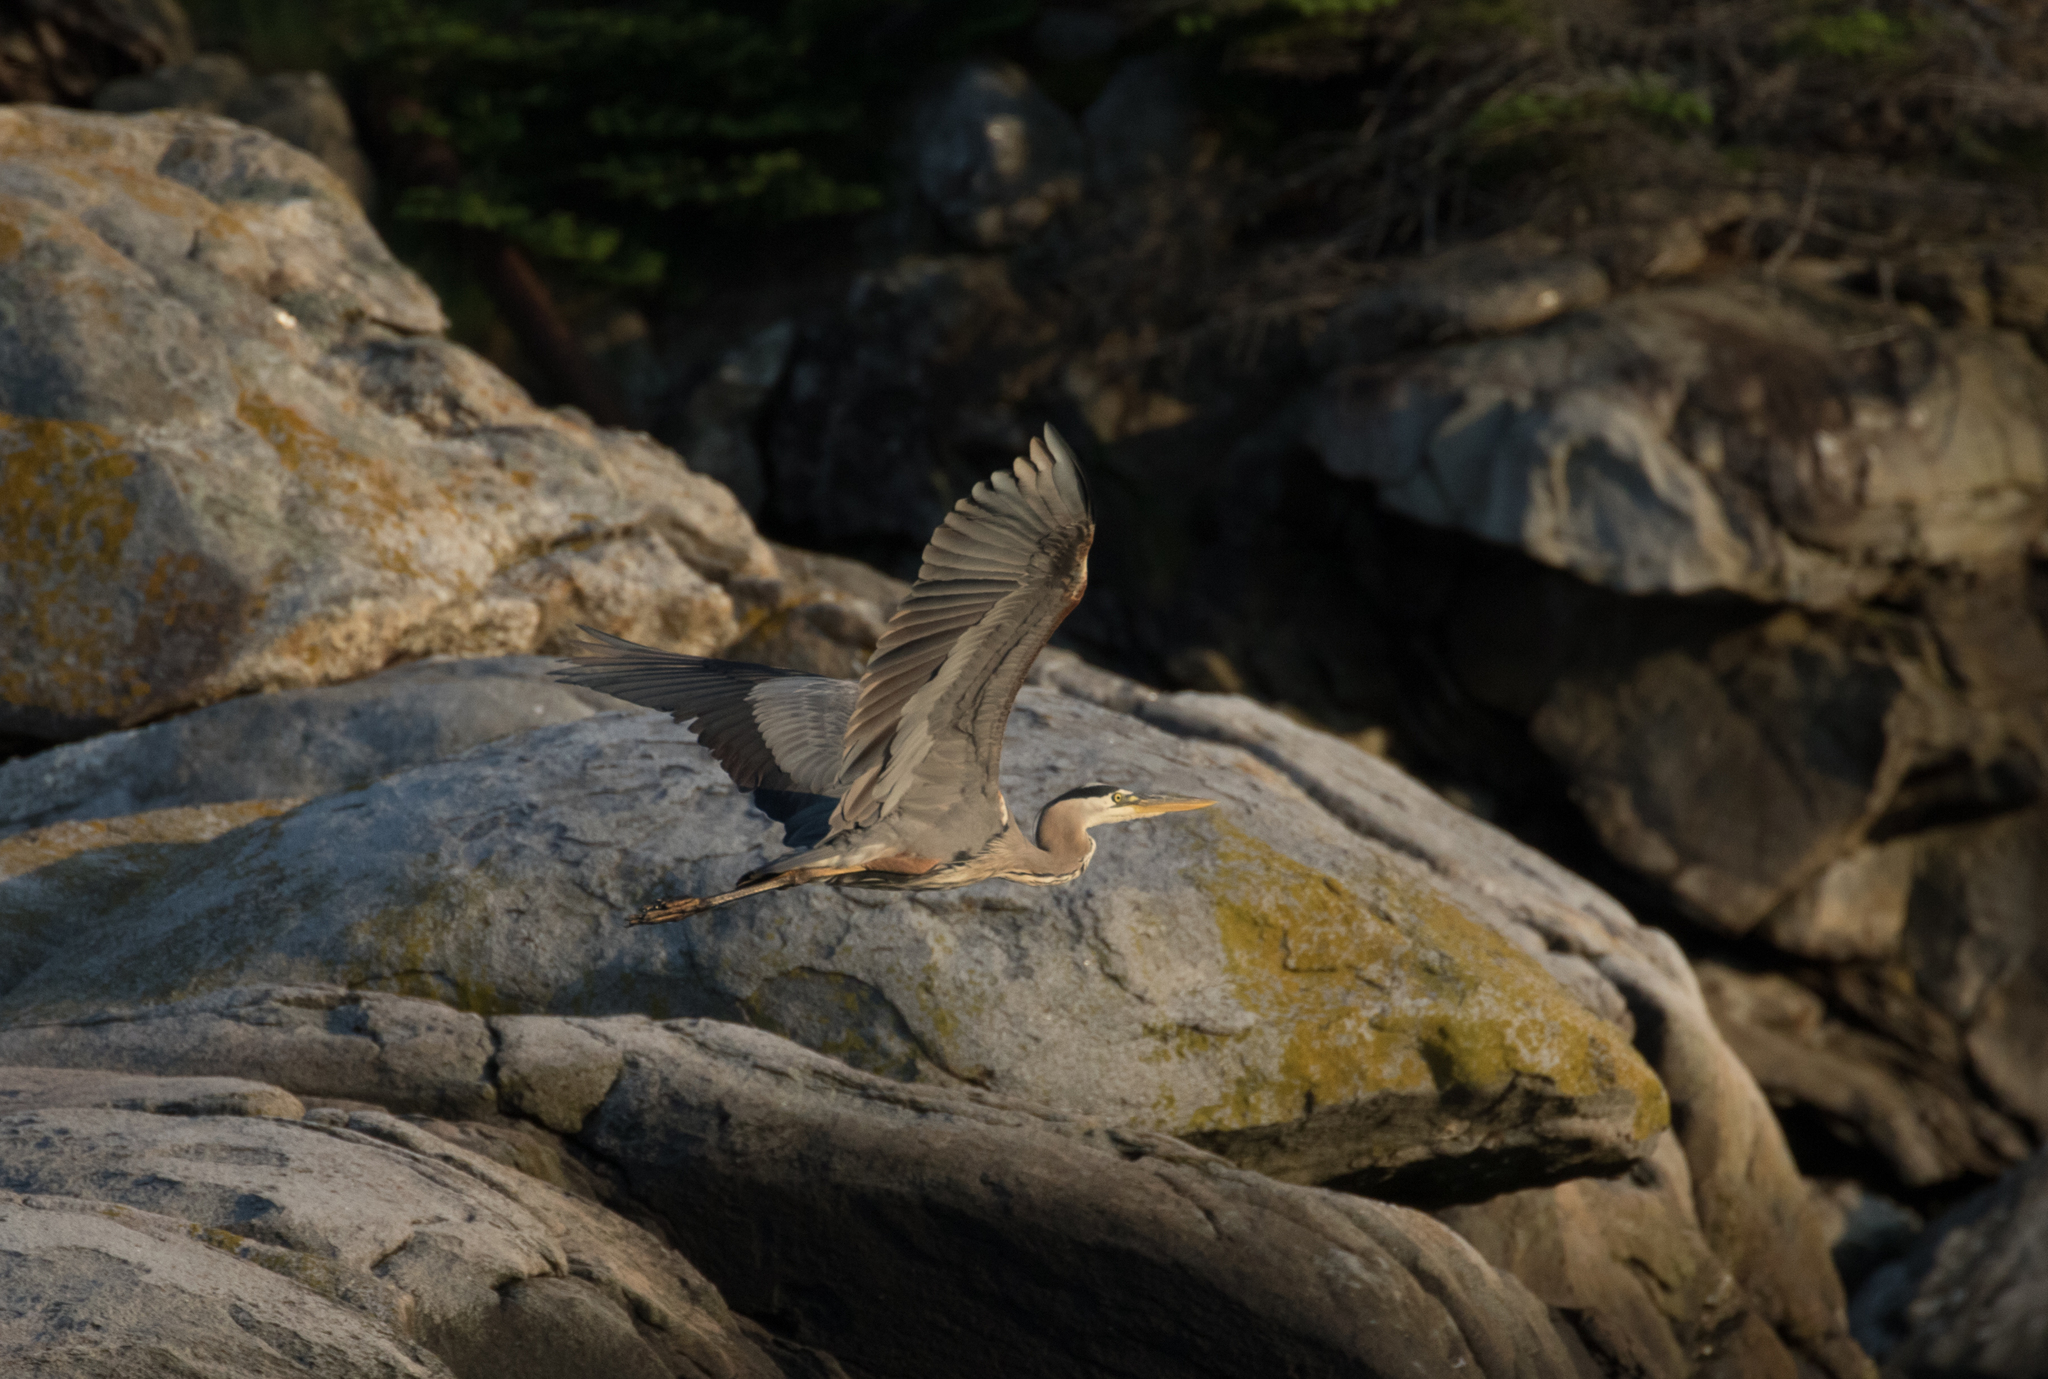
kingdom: Animalia
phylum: Chordata
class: Aves
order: Pelecaniformes
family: Ardeidae
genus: Ardea
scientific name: Ardea herodias
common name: Great blue heron
